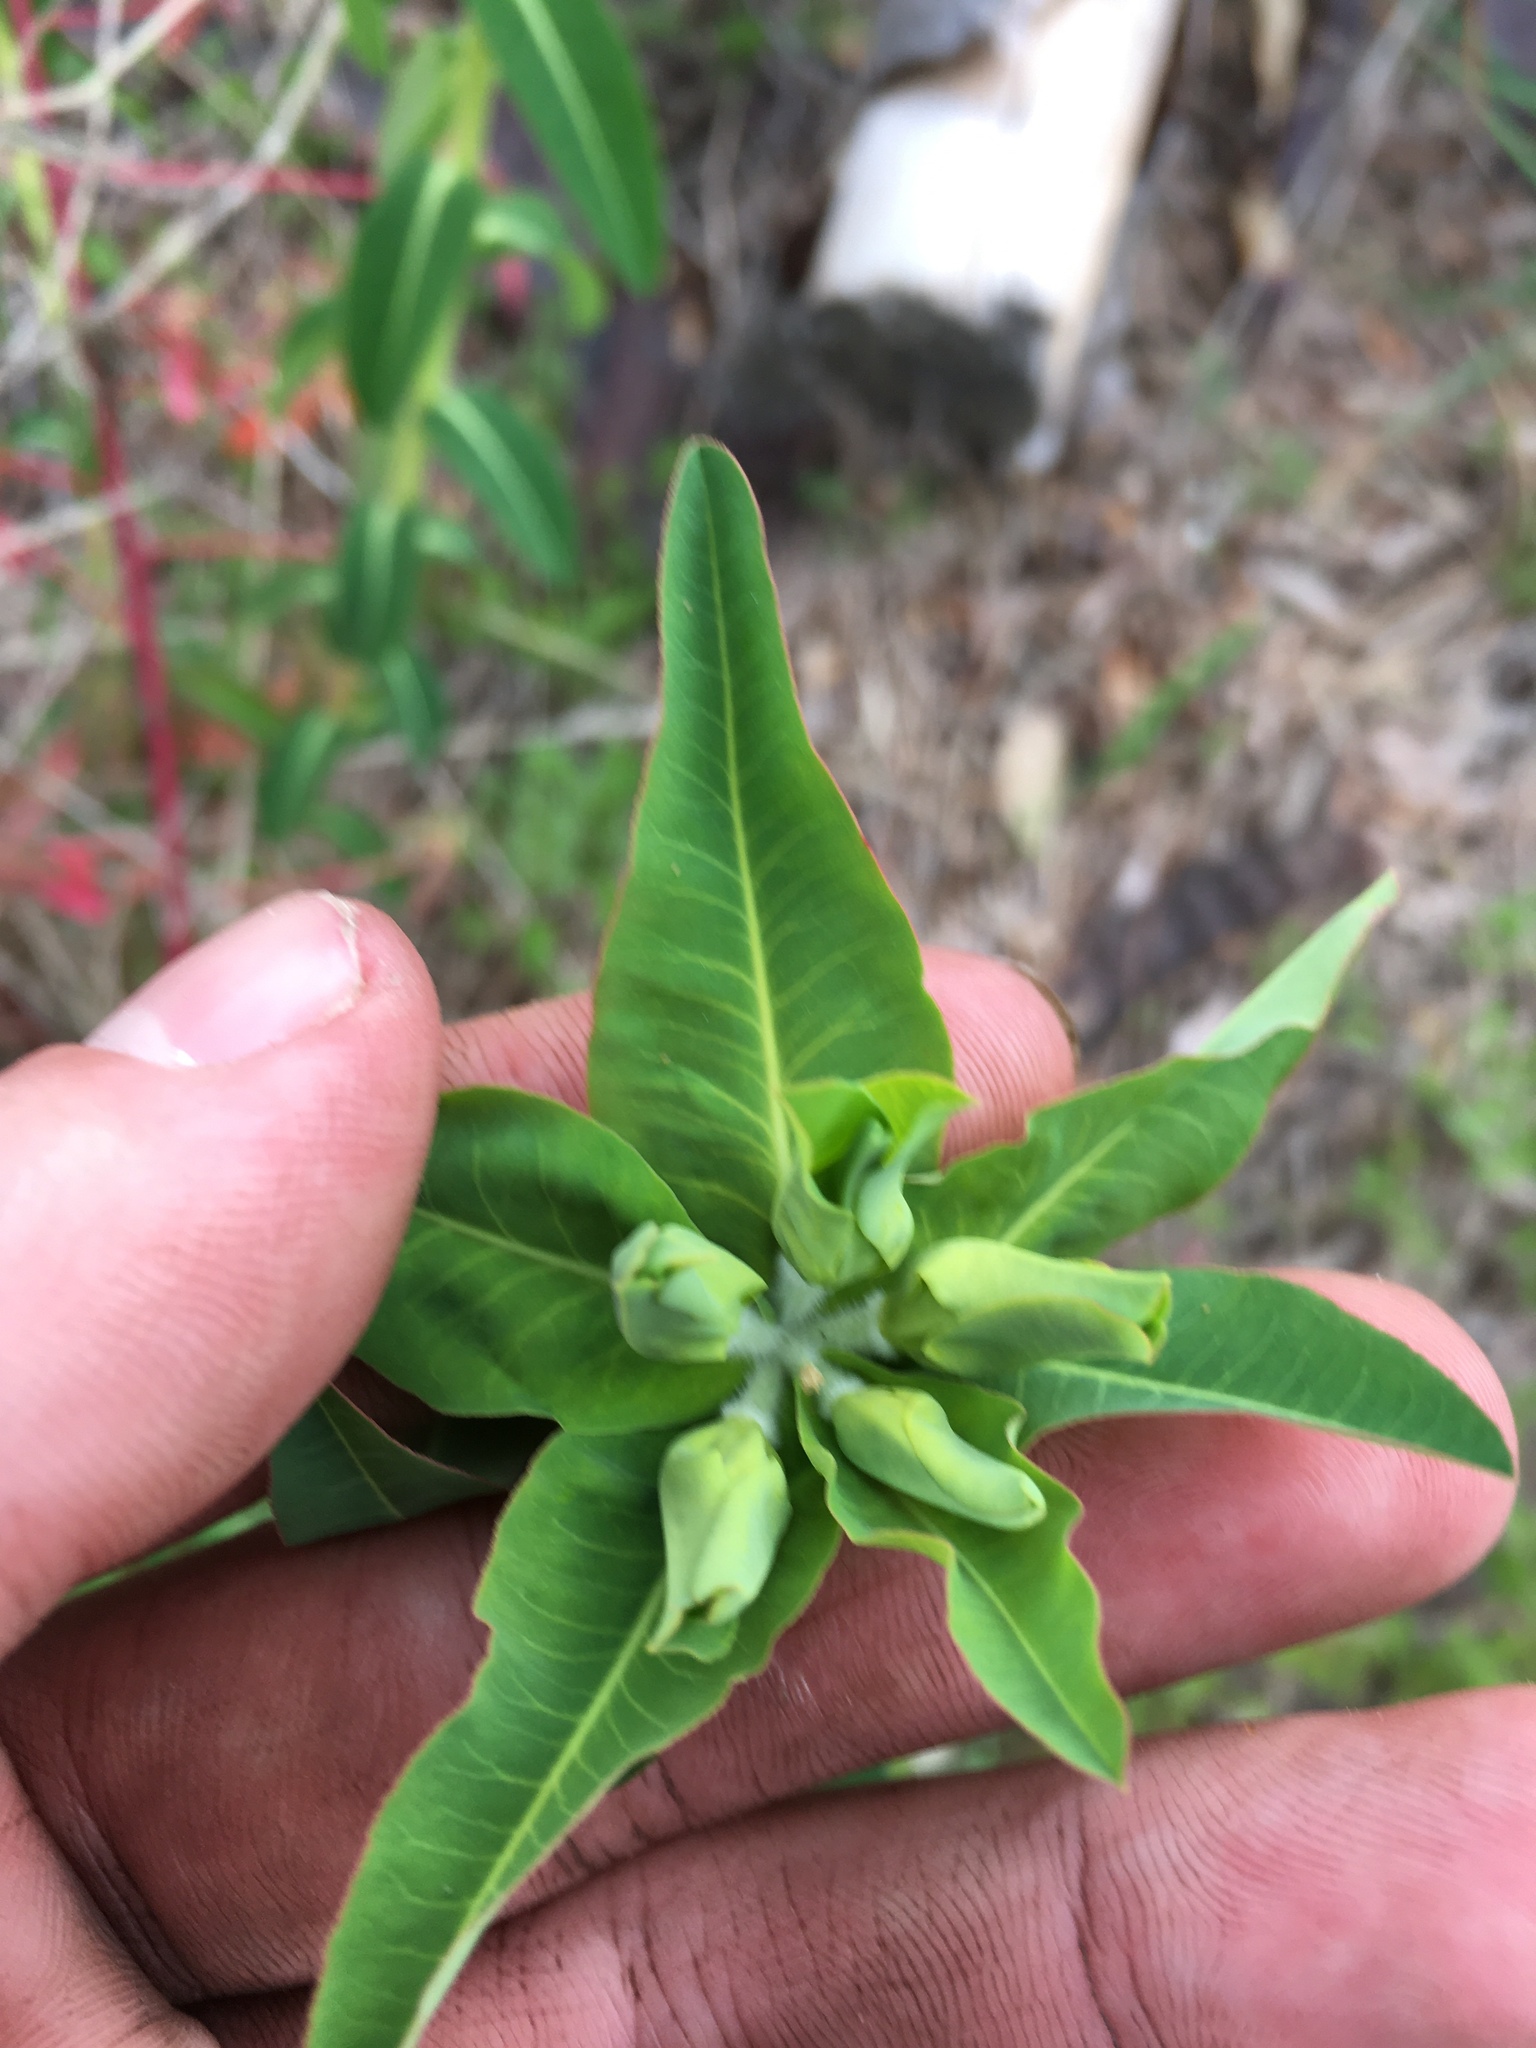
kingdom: Plantae
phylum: Tracheophyta
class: Magnoliopsida
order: Malpighiales
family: Euphorbiaceae
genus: Euphorbia
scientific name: Euphorbia oblongata
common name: Balkan spurge
